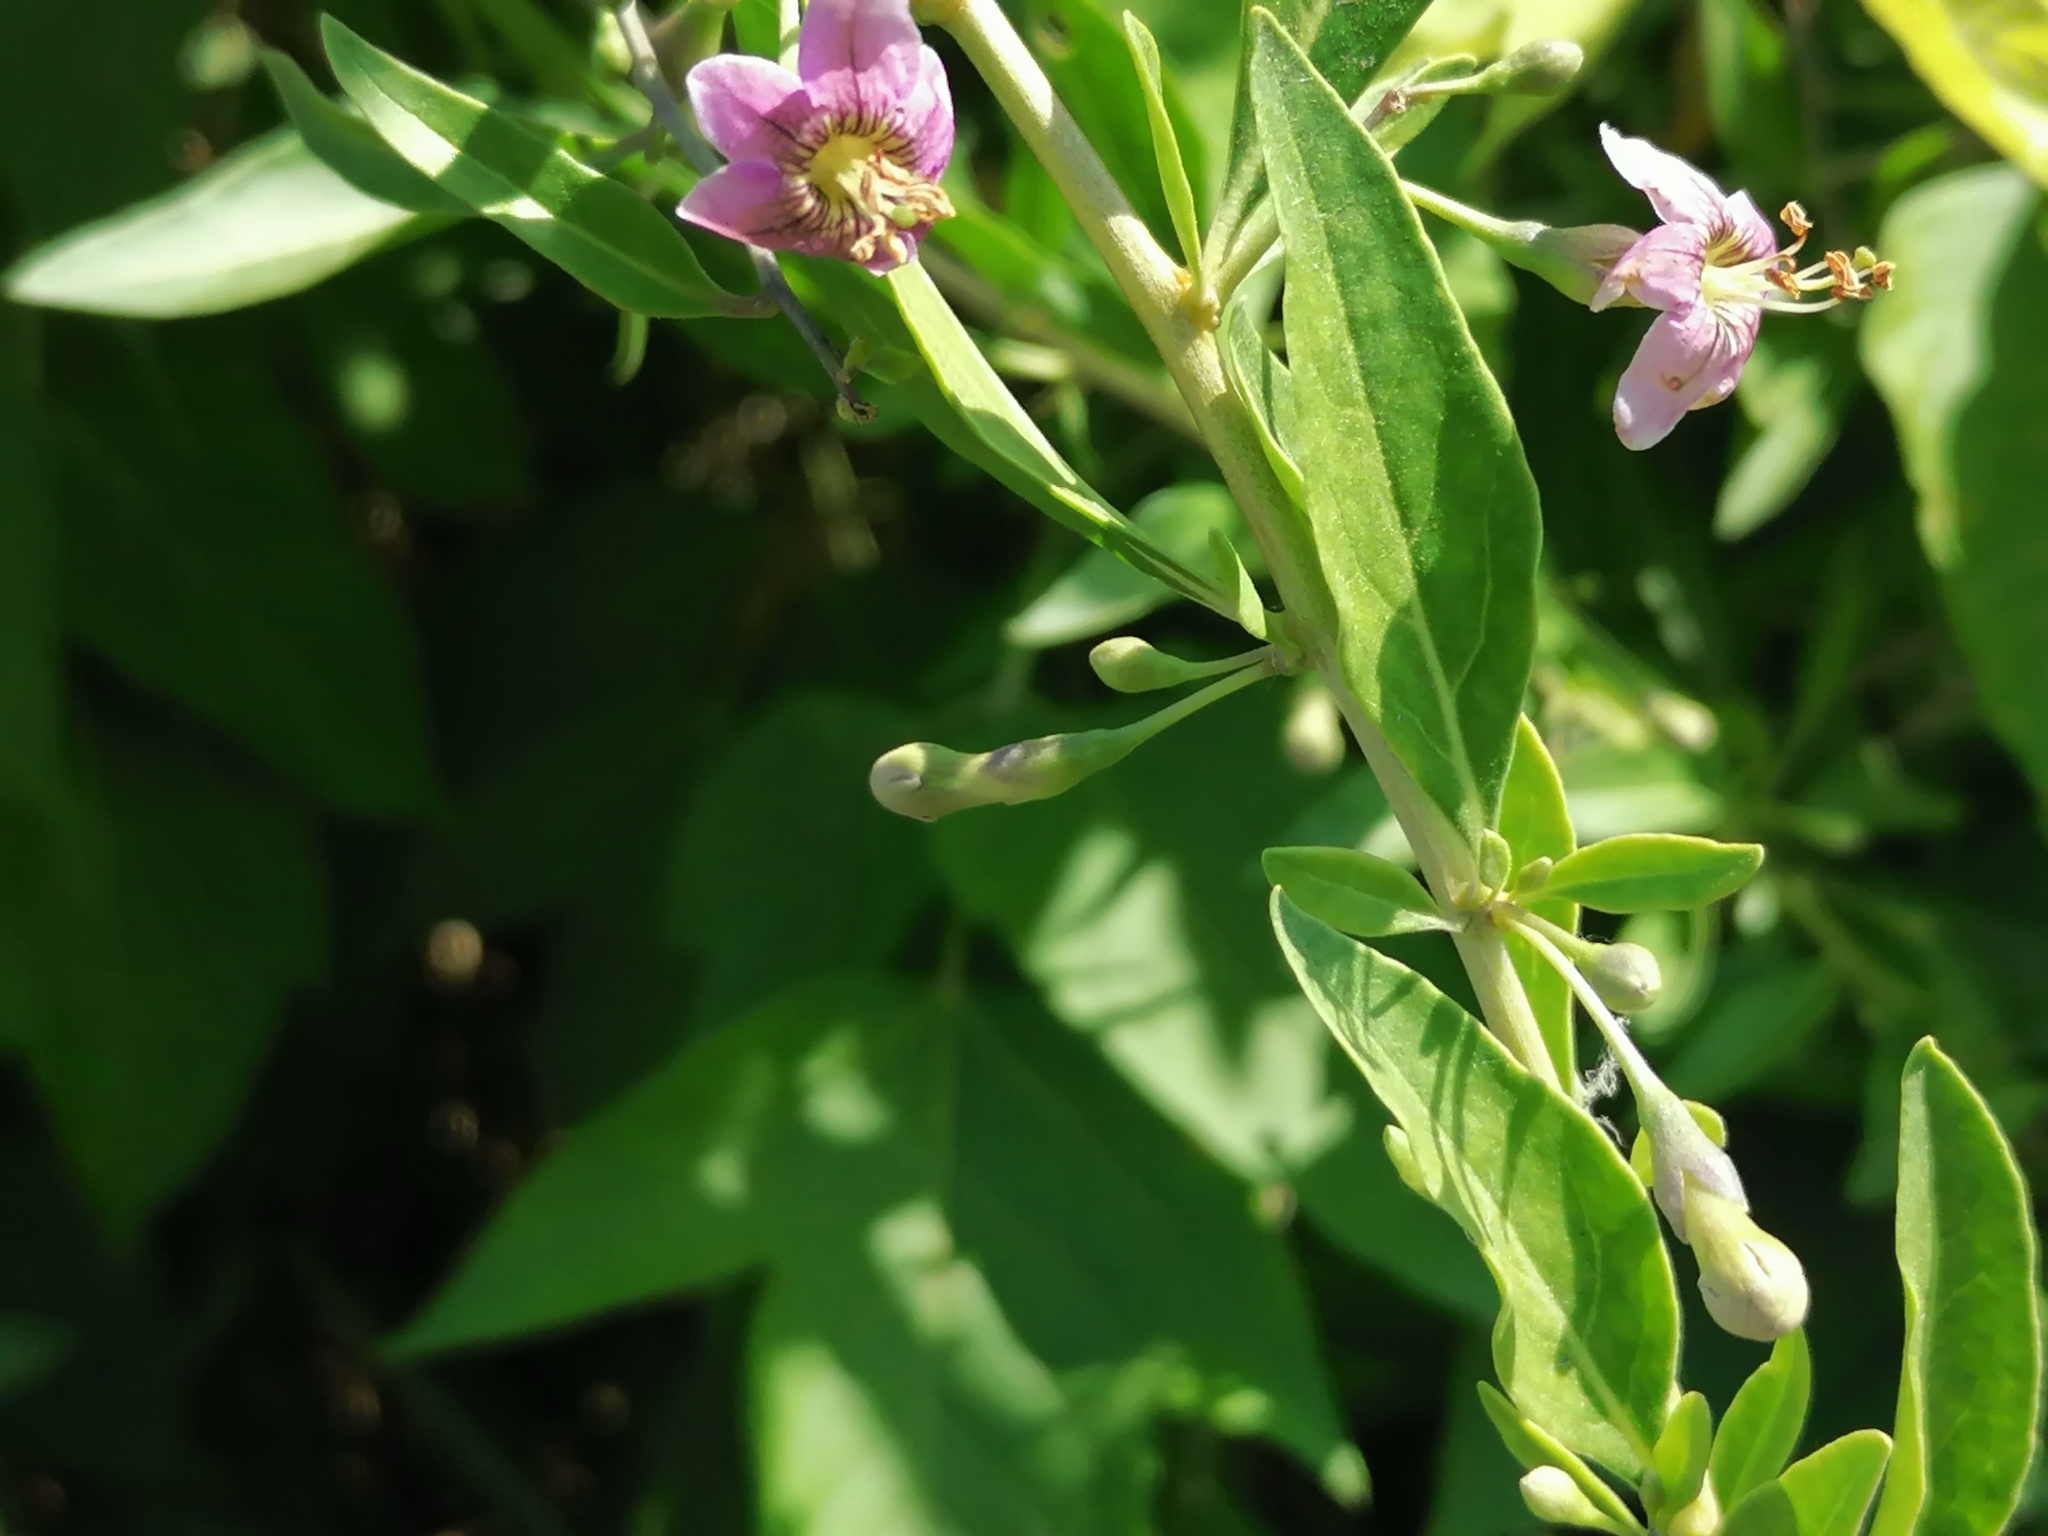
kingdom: Plantae
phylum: Tracheophyta
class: Magnoliopsida
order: Solanales
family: Solanaceae
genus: Lycium
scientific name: Lycium barbarum
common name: Duke of argyll's teaplant
